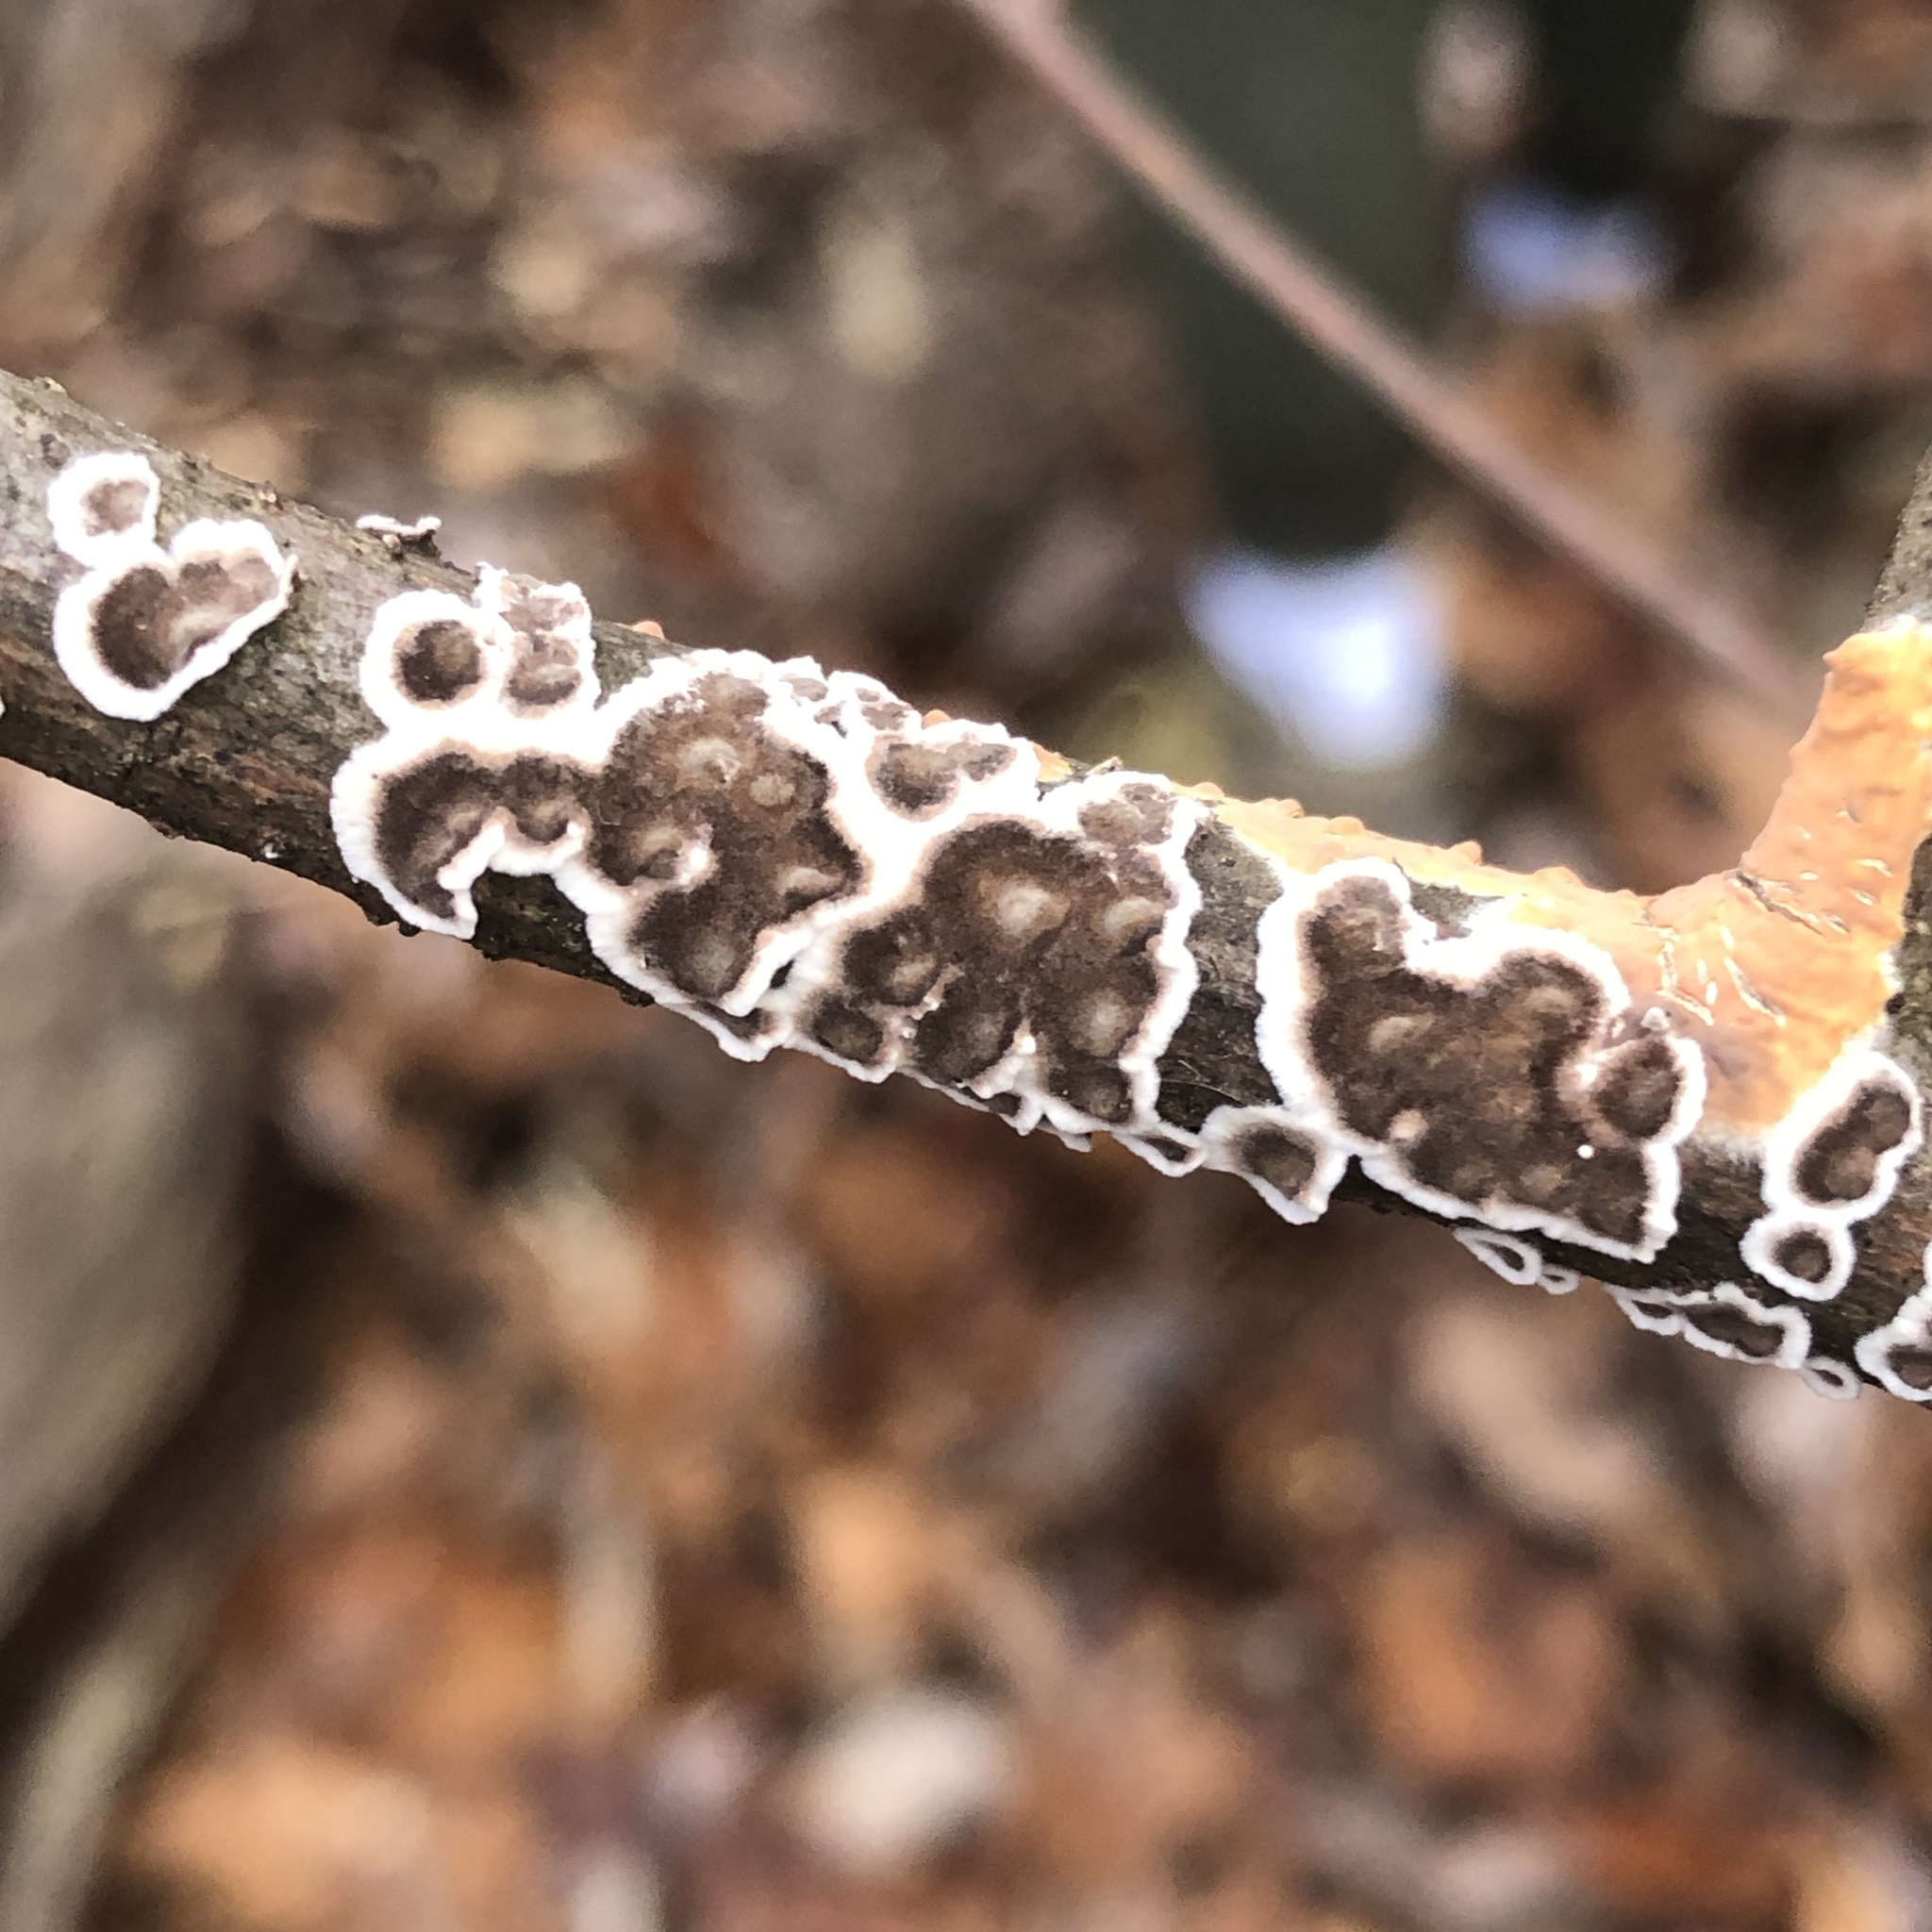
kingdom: Fungi
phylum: Basidiomycota
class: Agaricomycetes
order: Russulales
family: Peniophoraceae
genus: Peniophora
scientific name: Peniophora albobadia
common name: Giraffe spots
